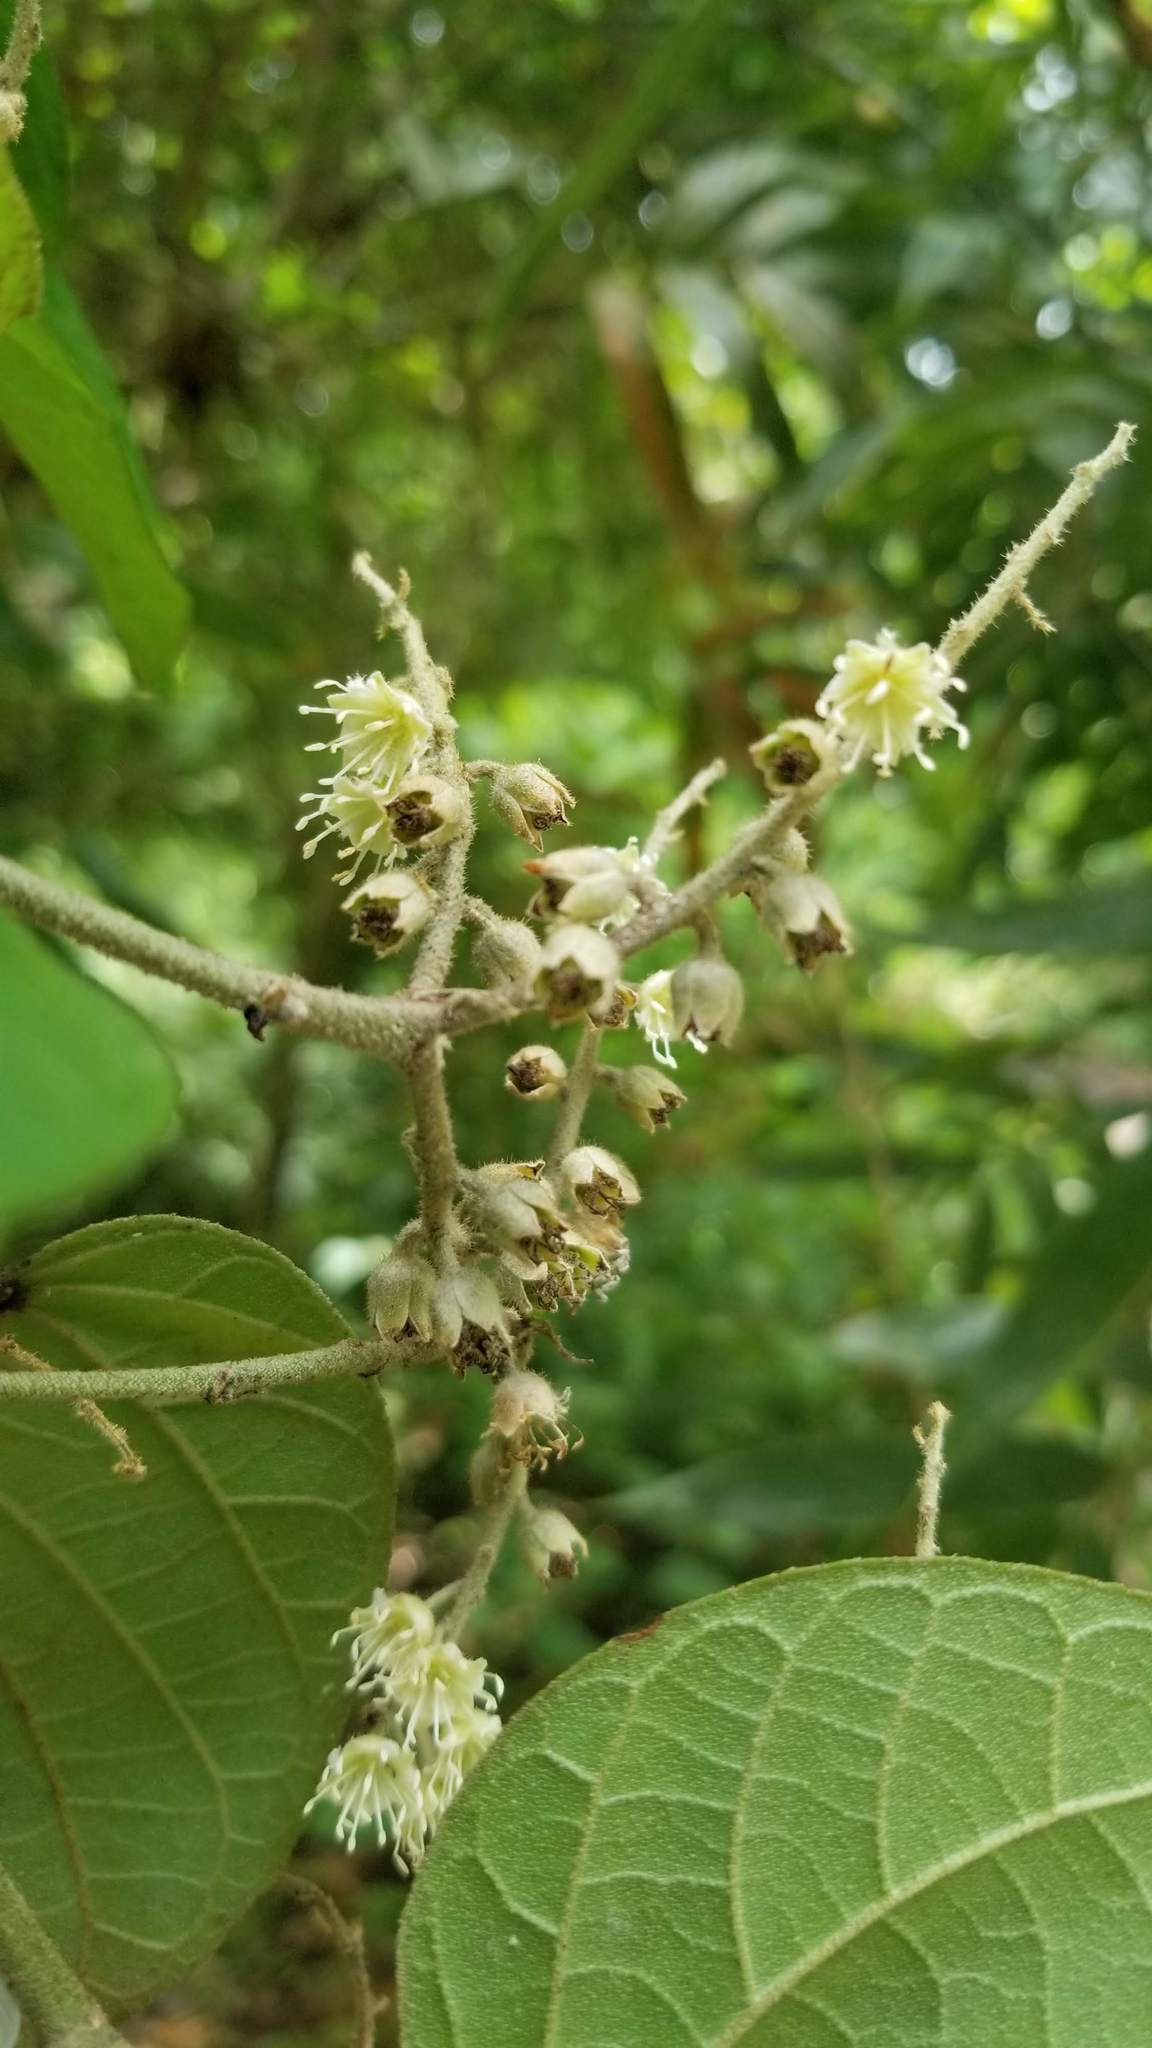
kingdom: Plantae
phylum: Tracheophyta
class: Magnoliopsida
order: Malpighiales
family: Euphorbiaceae
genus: Croton
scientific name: Croton billbergianus
